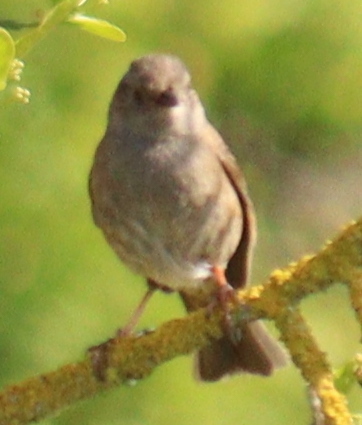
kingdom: Animalia
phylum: Chordata
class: Aves
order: Passeriformes
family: Prunellidae
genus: Prunella
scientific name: Prunella modularis
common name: Dunnock
